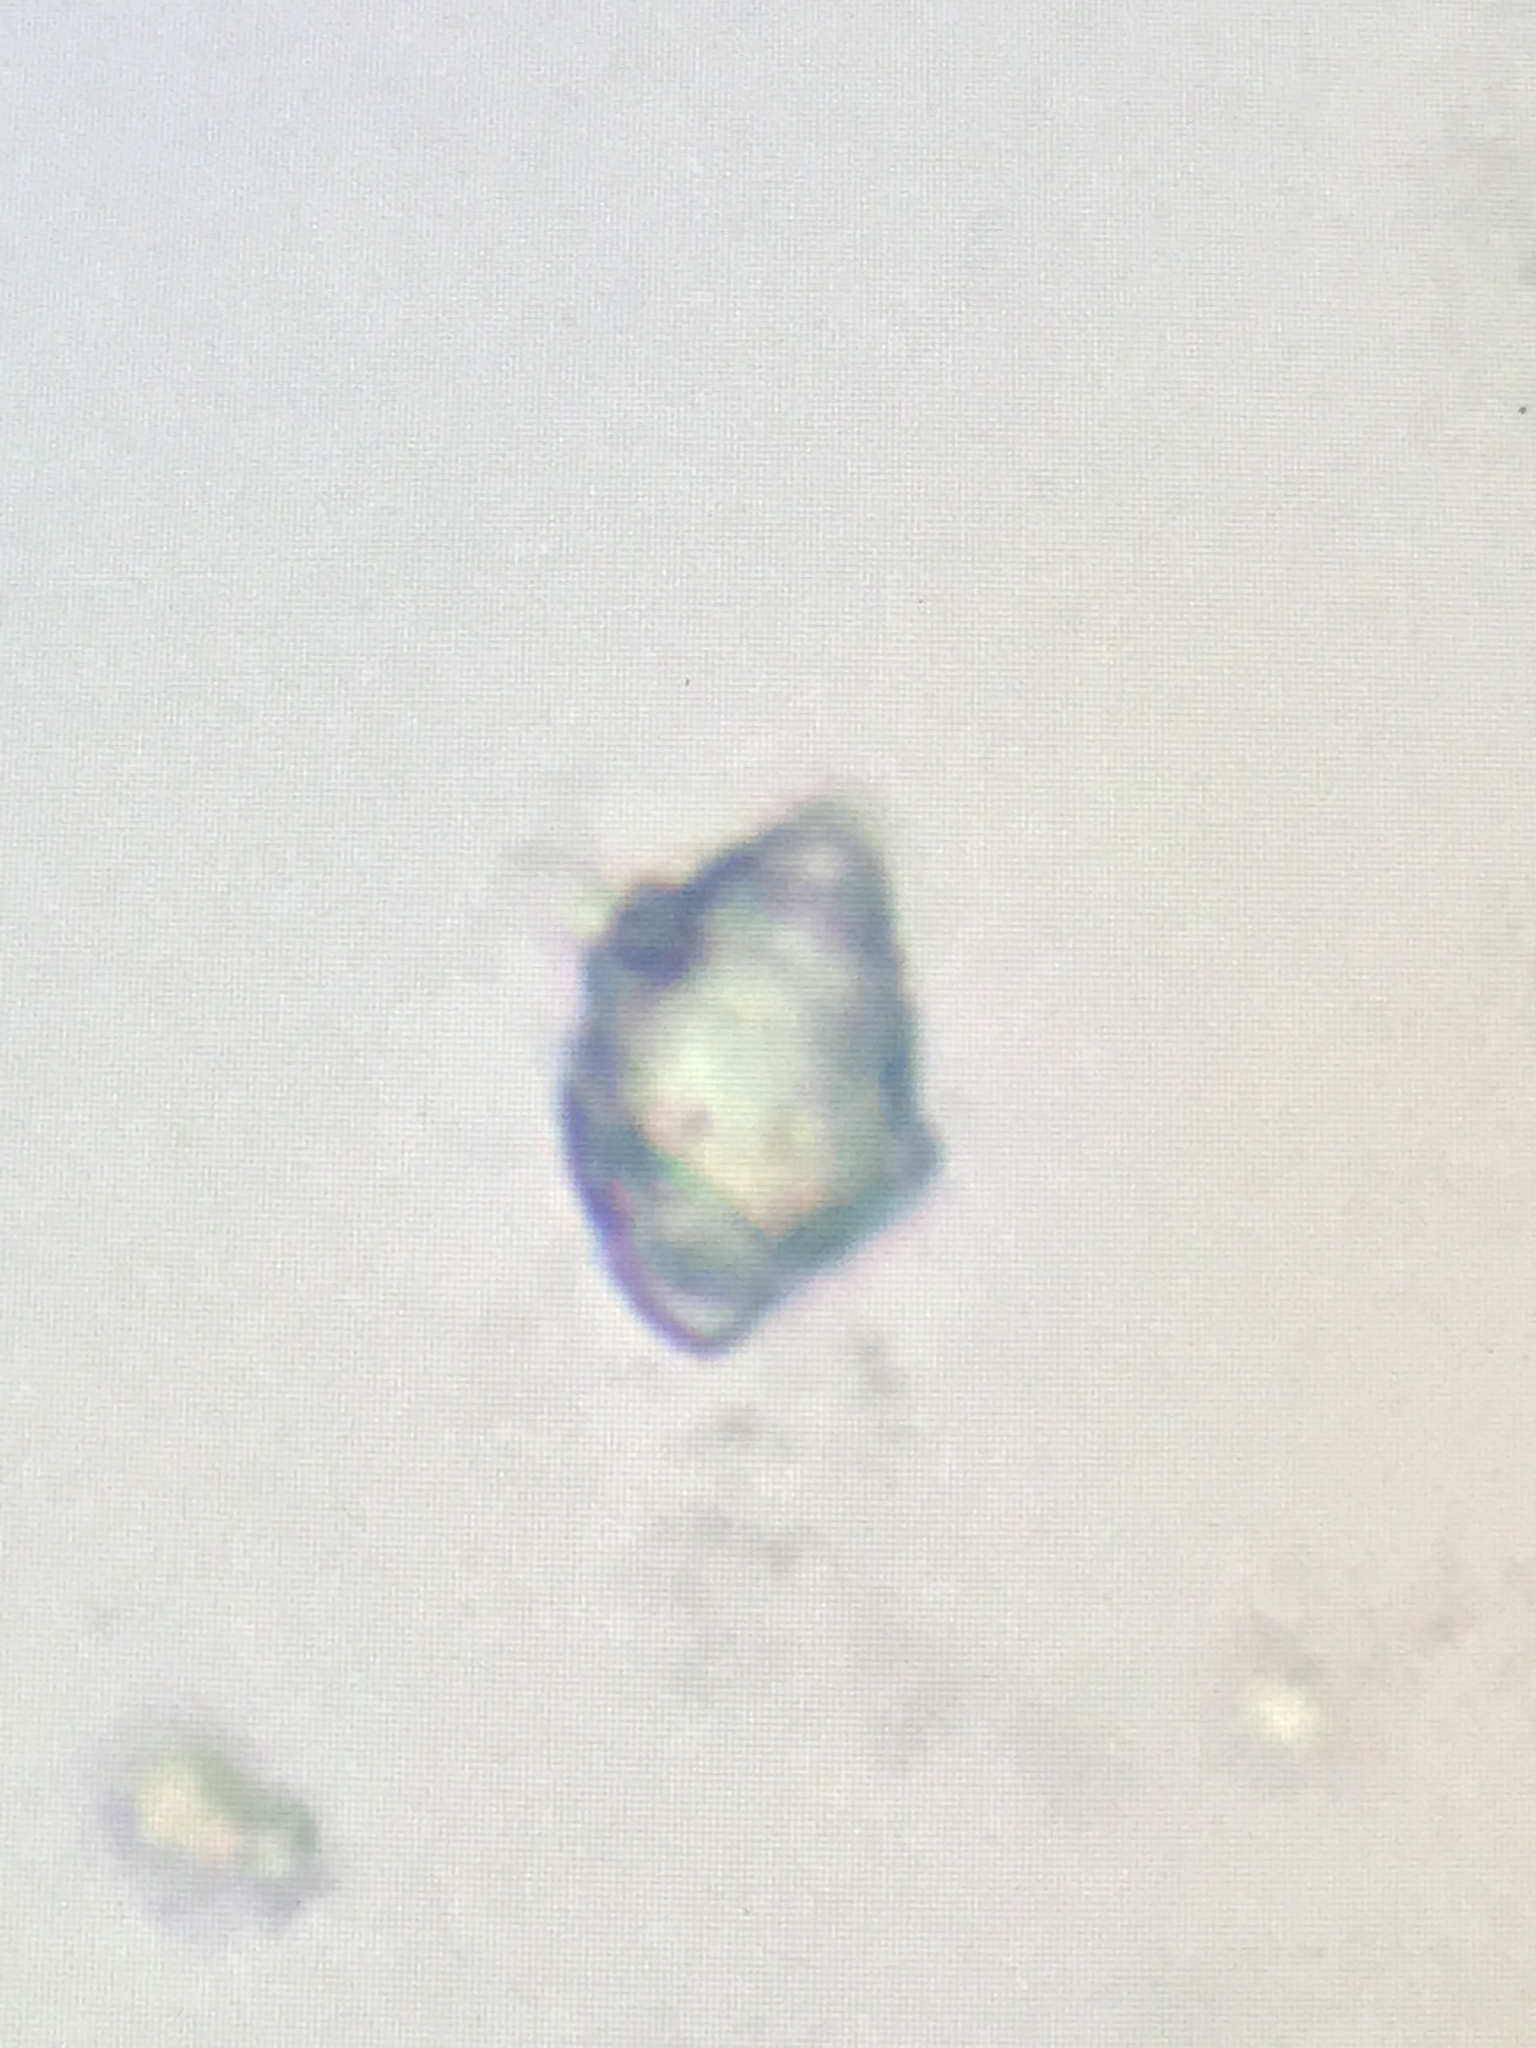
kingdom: Fungi
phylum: Basidiomycota
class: Agaricomycetes
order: Polyporales
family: Phanerochaetaceae
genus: Bjerkandera
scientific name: Bjerkandera adusta
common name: Smoky bracket
